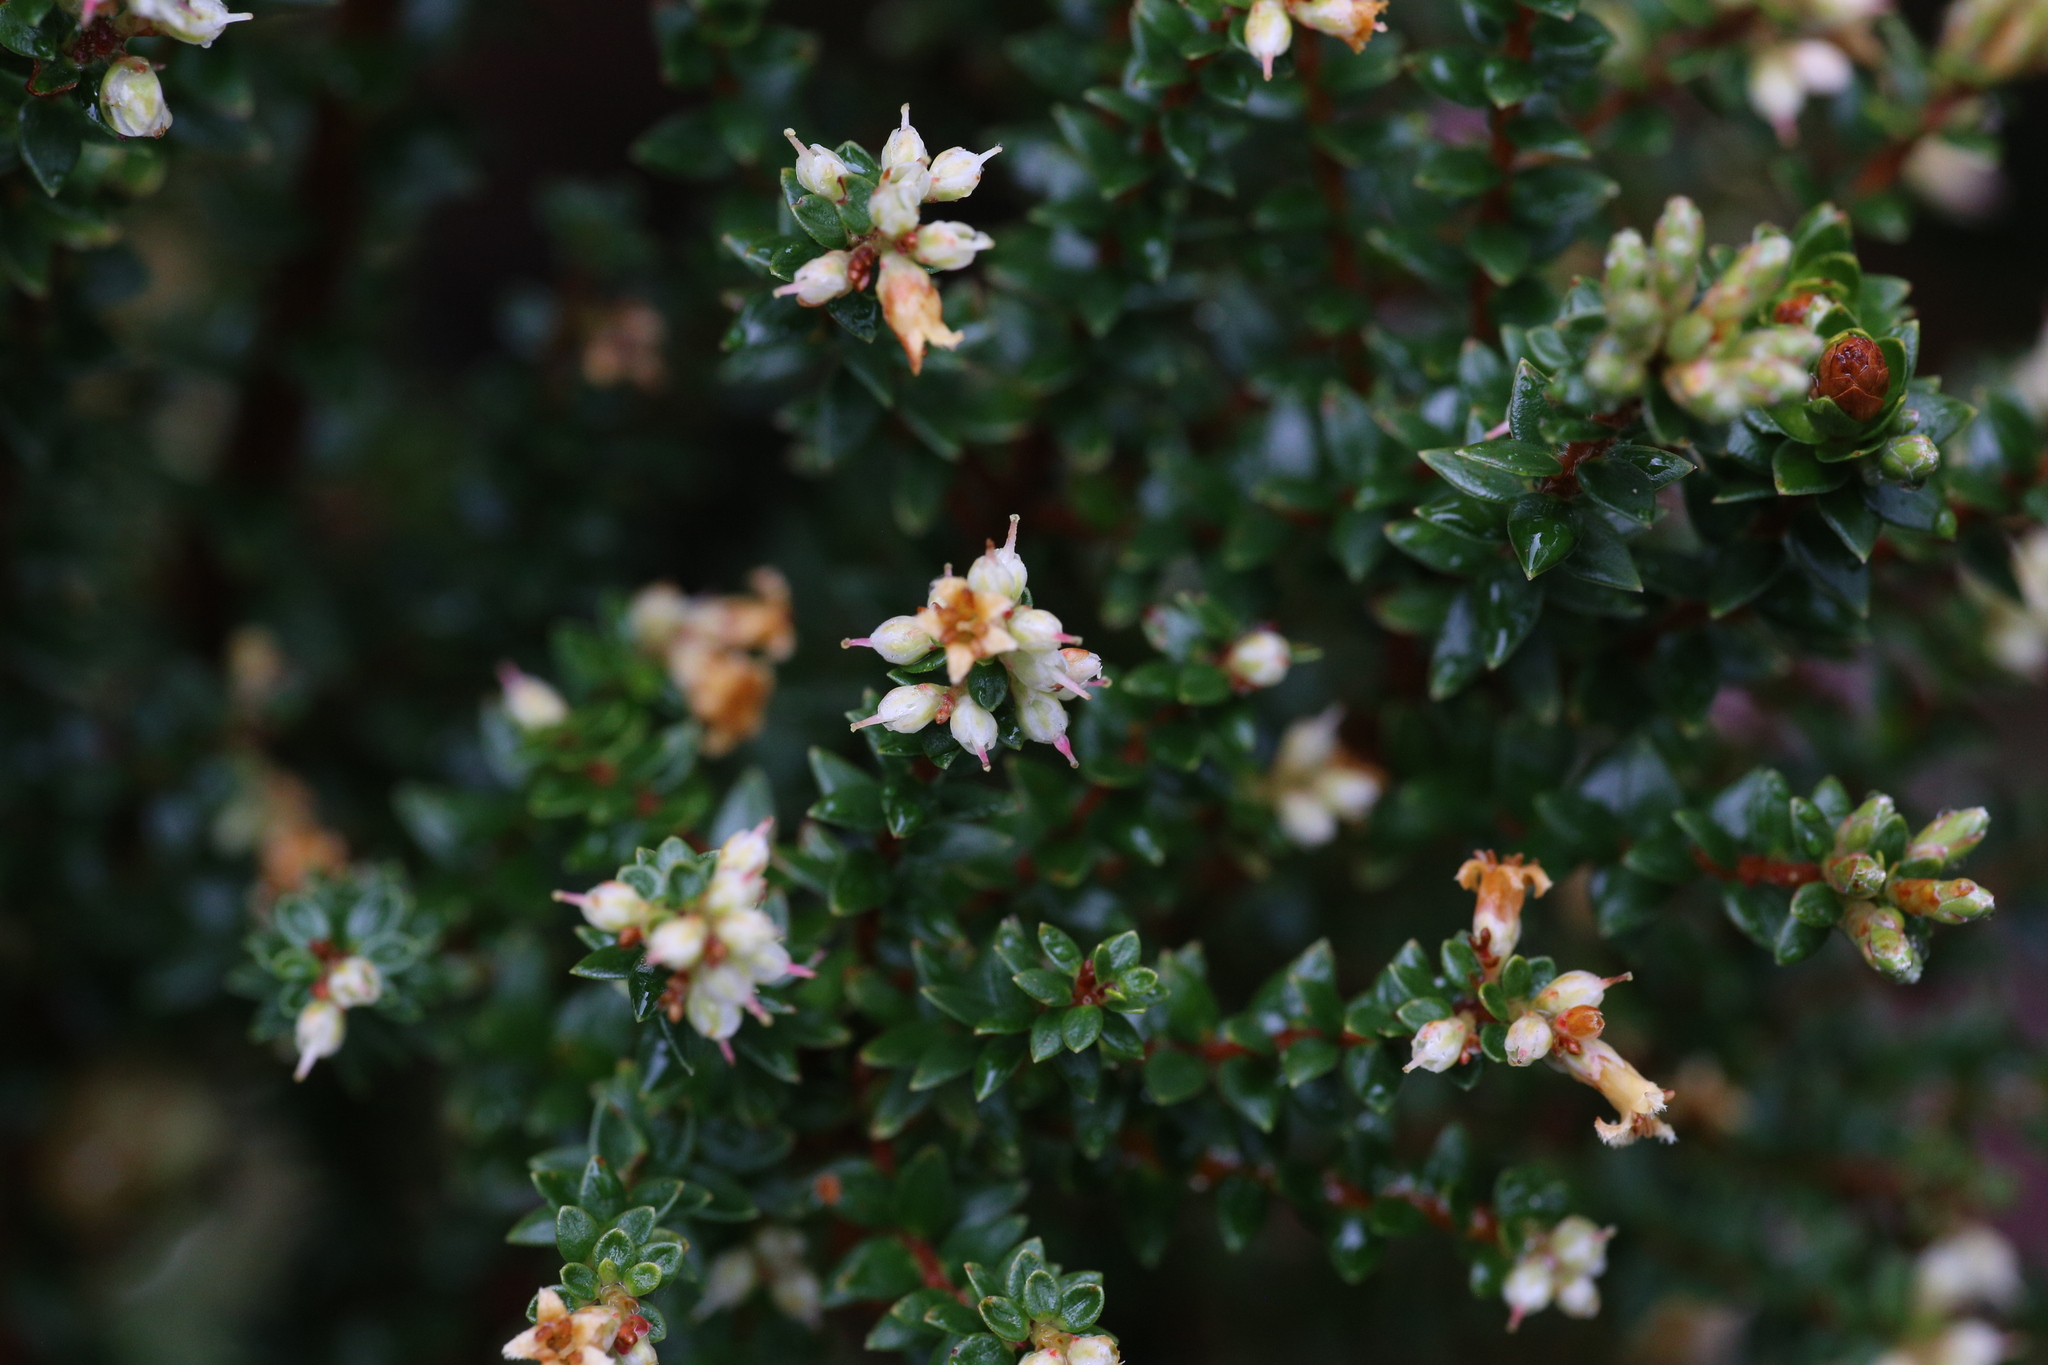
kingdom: Plantae
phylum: Tracheophyta
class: Magnoliopsida
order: Ericales
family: Ericaceae
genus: Acrothamnus
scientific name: Acrothamnus maccraei
